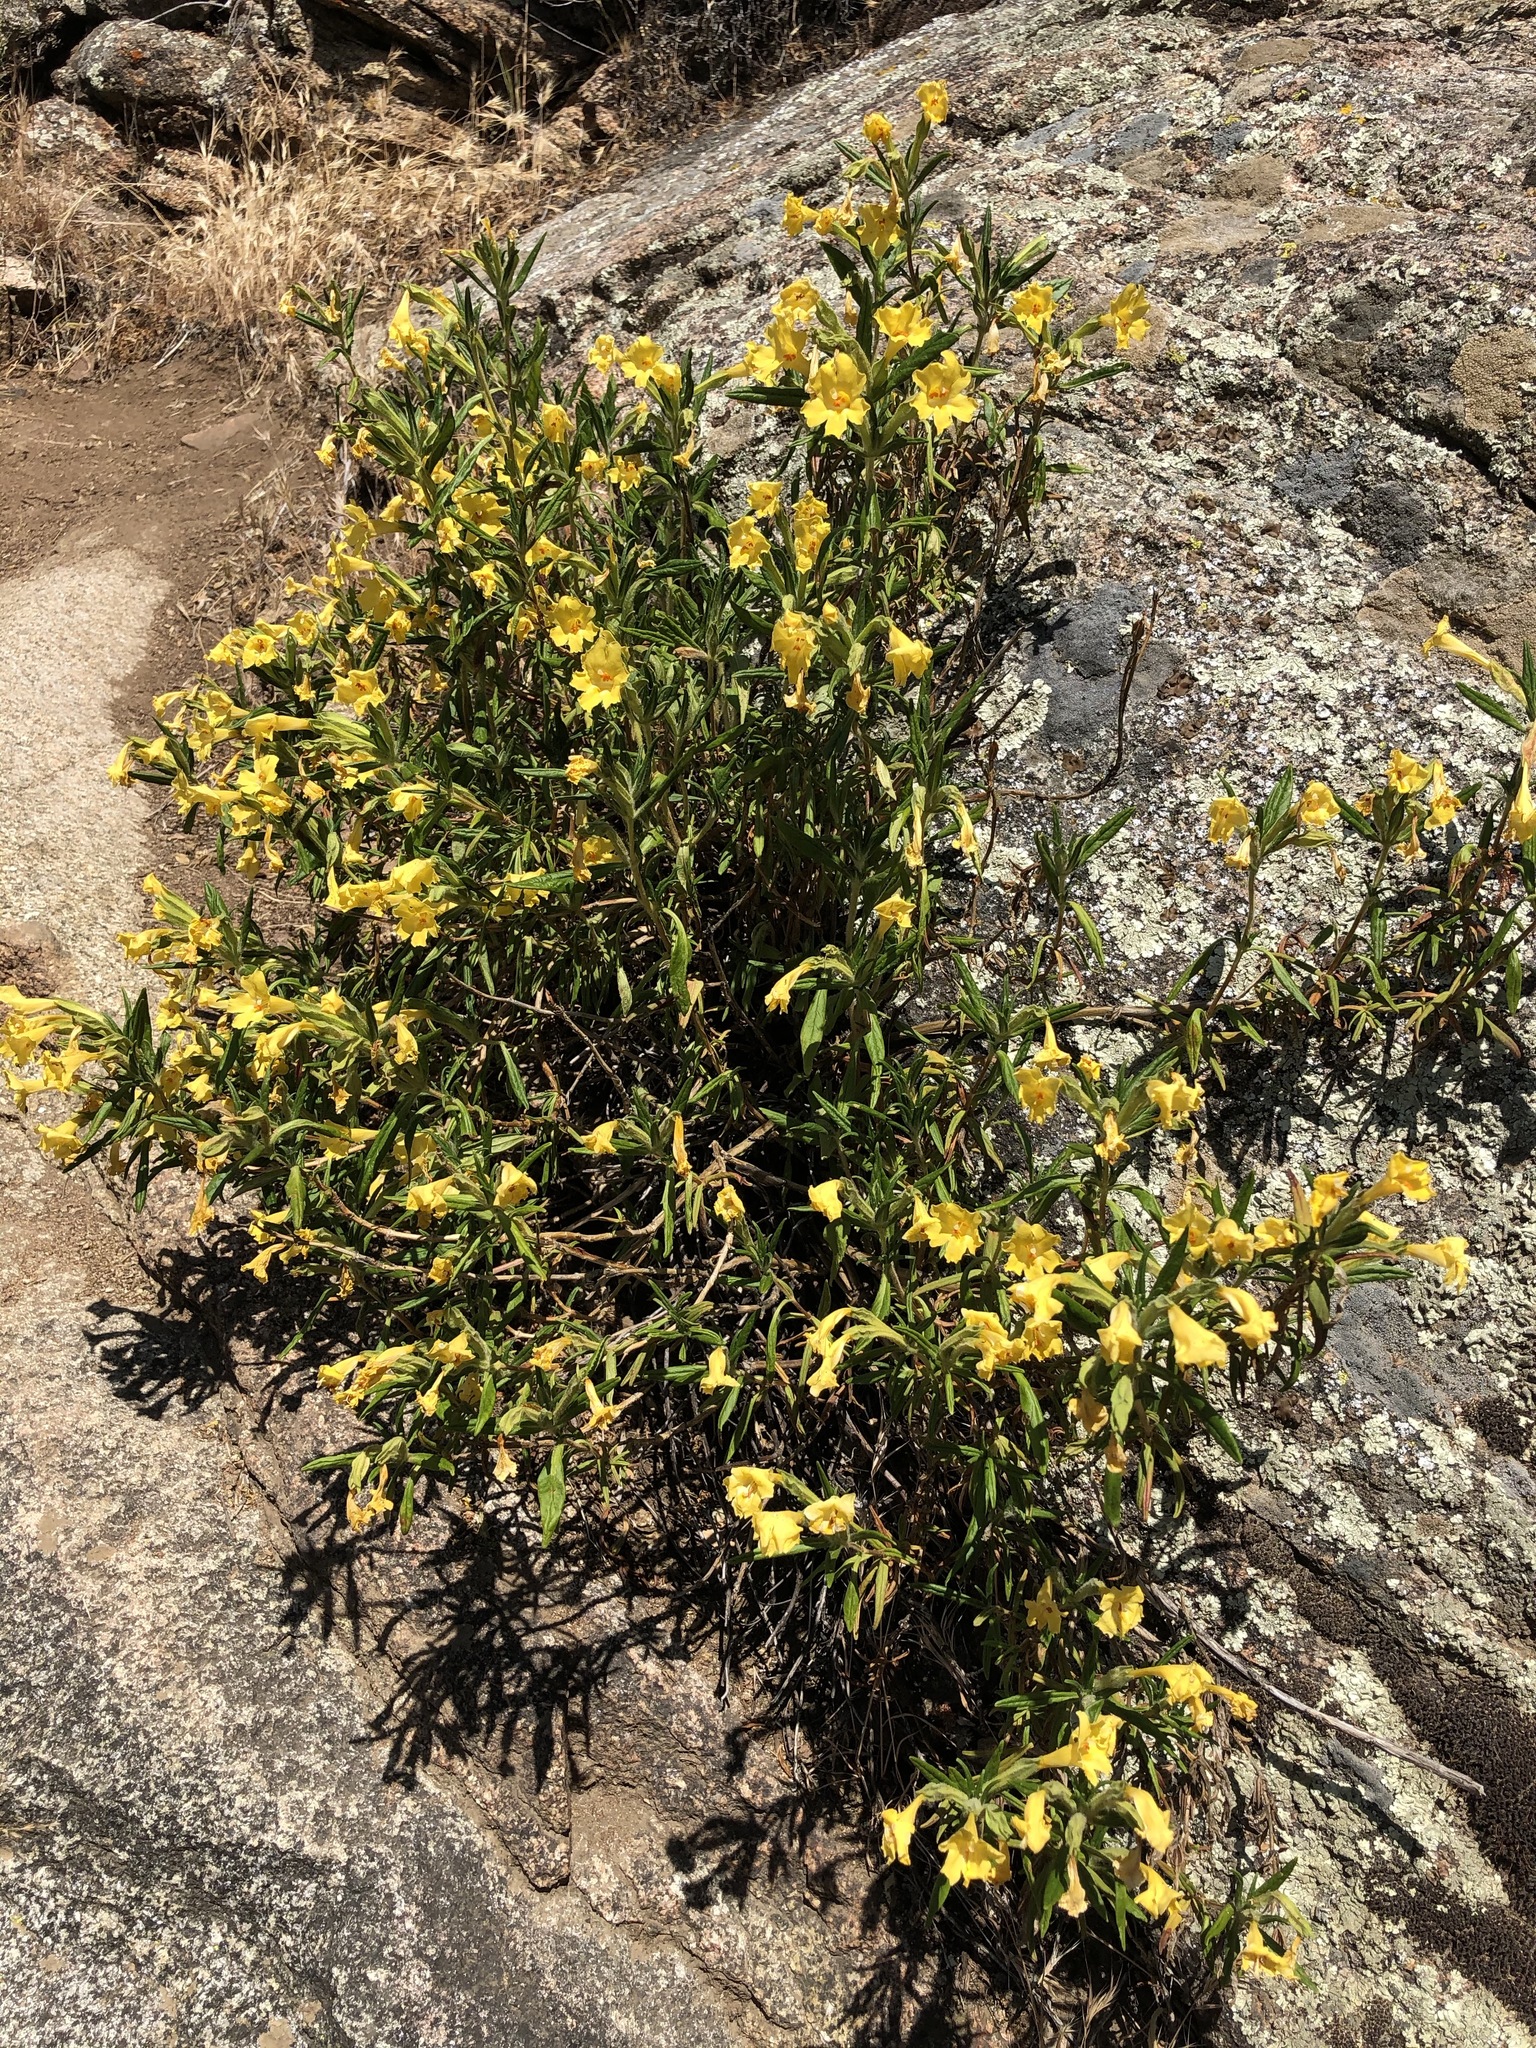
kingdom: Plantae
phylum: Tracheophyta
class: Magnoliopsida
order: Lamiales
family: Phrymaceae
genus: Diplacus
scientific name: Diplacus calycinus
